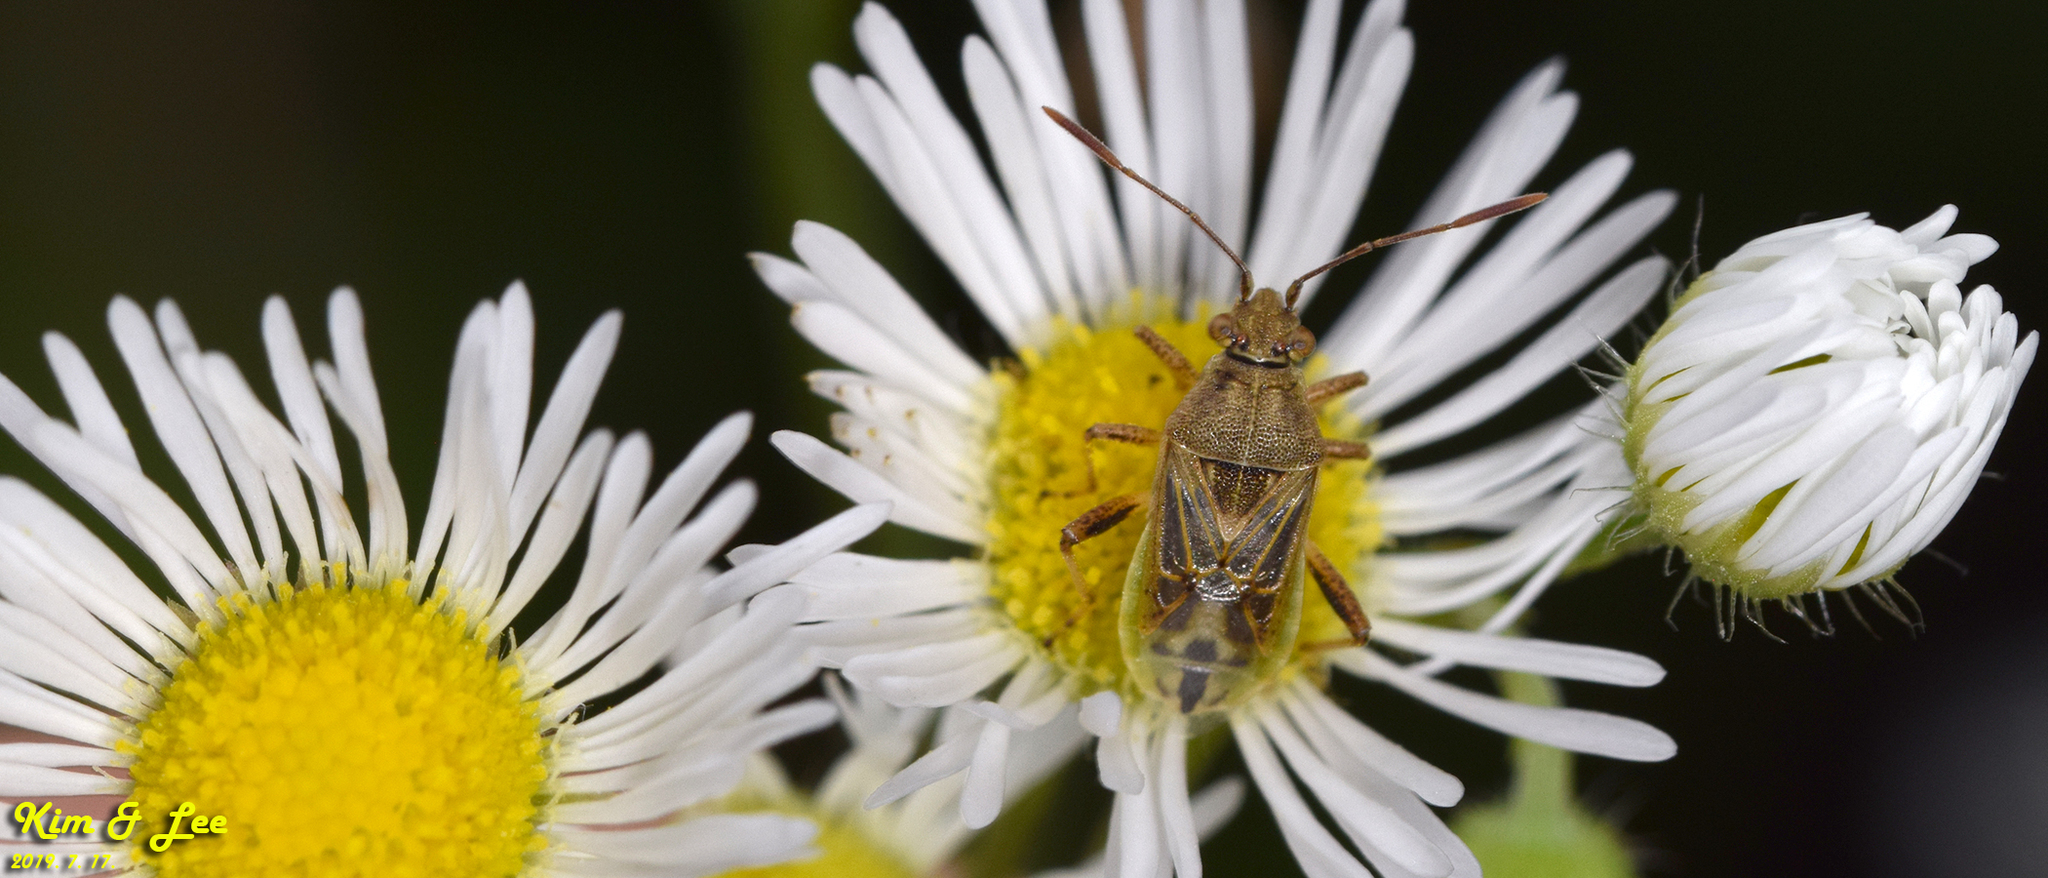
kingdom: Animalia
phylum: Arthropoda
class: Insecta
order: Hemiptera
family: Rhopalidae
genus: Stictopleurus
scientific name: Stictopleurus minutus
